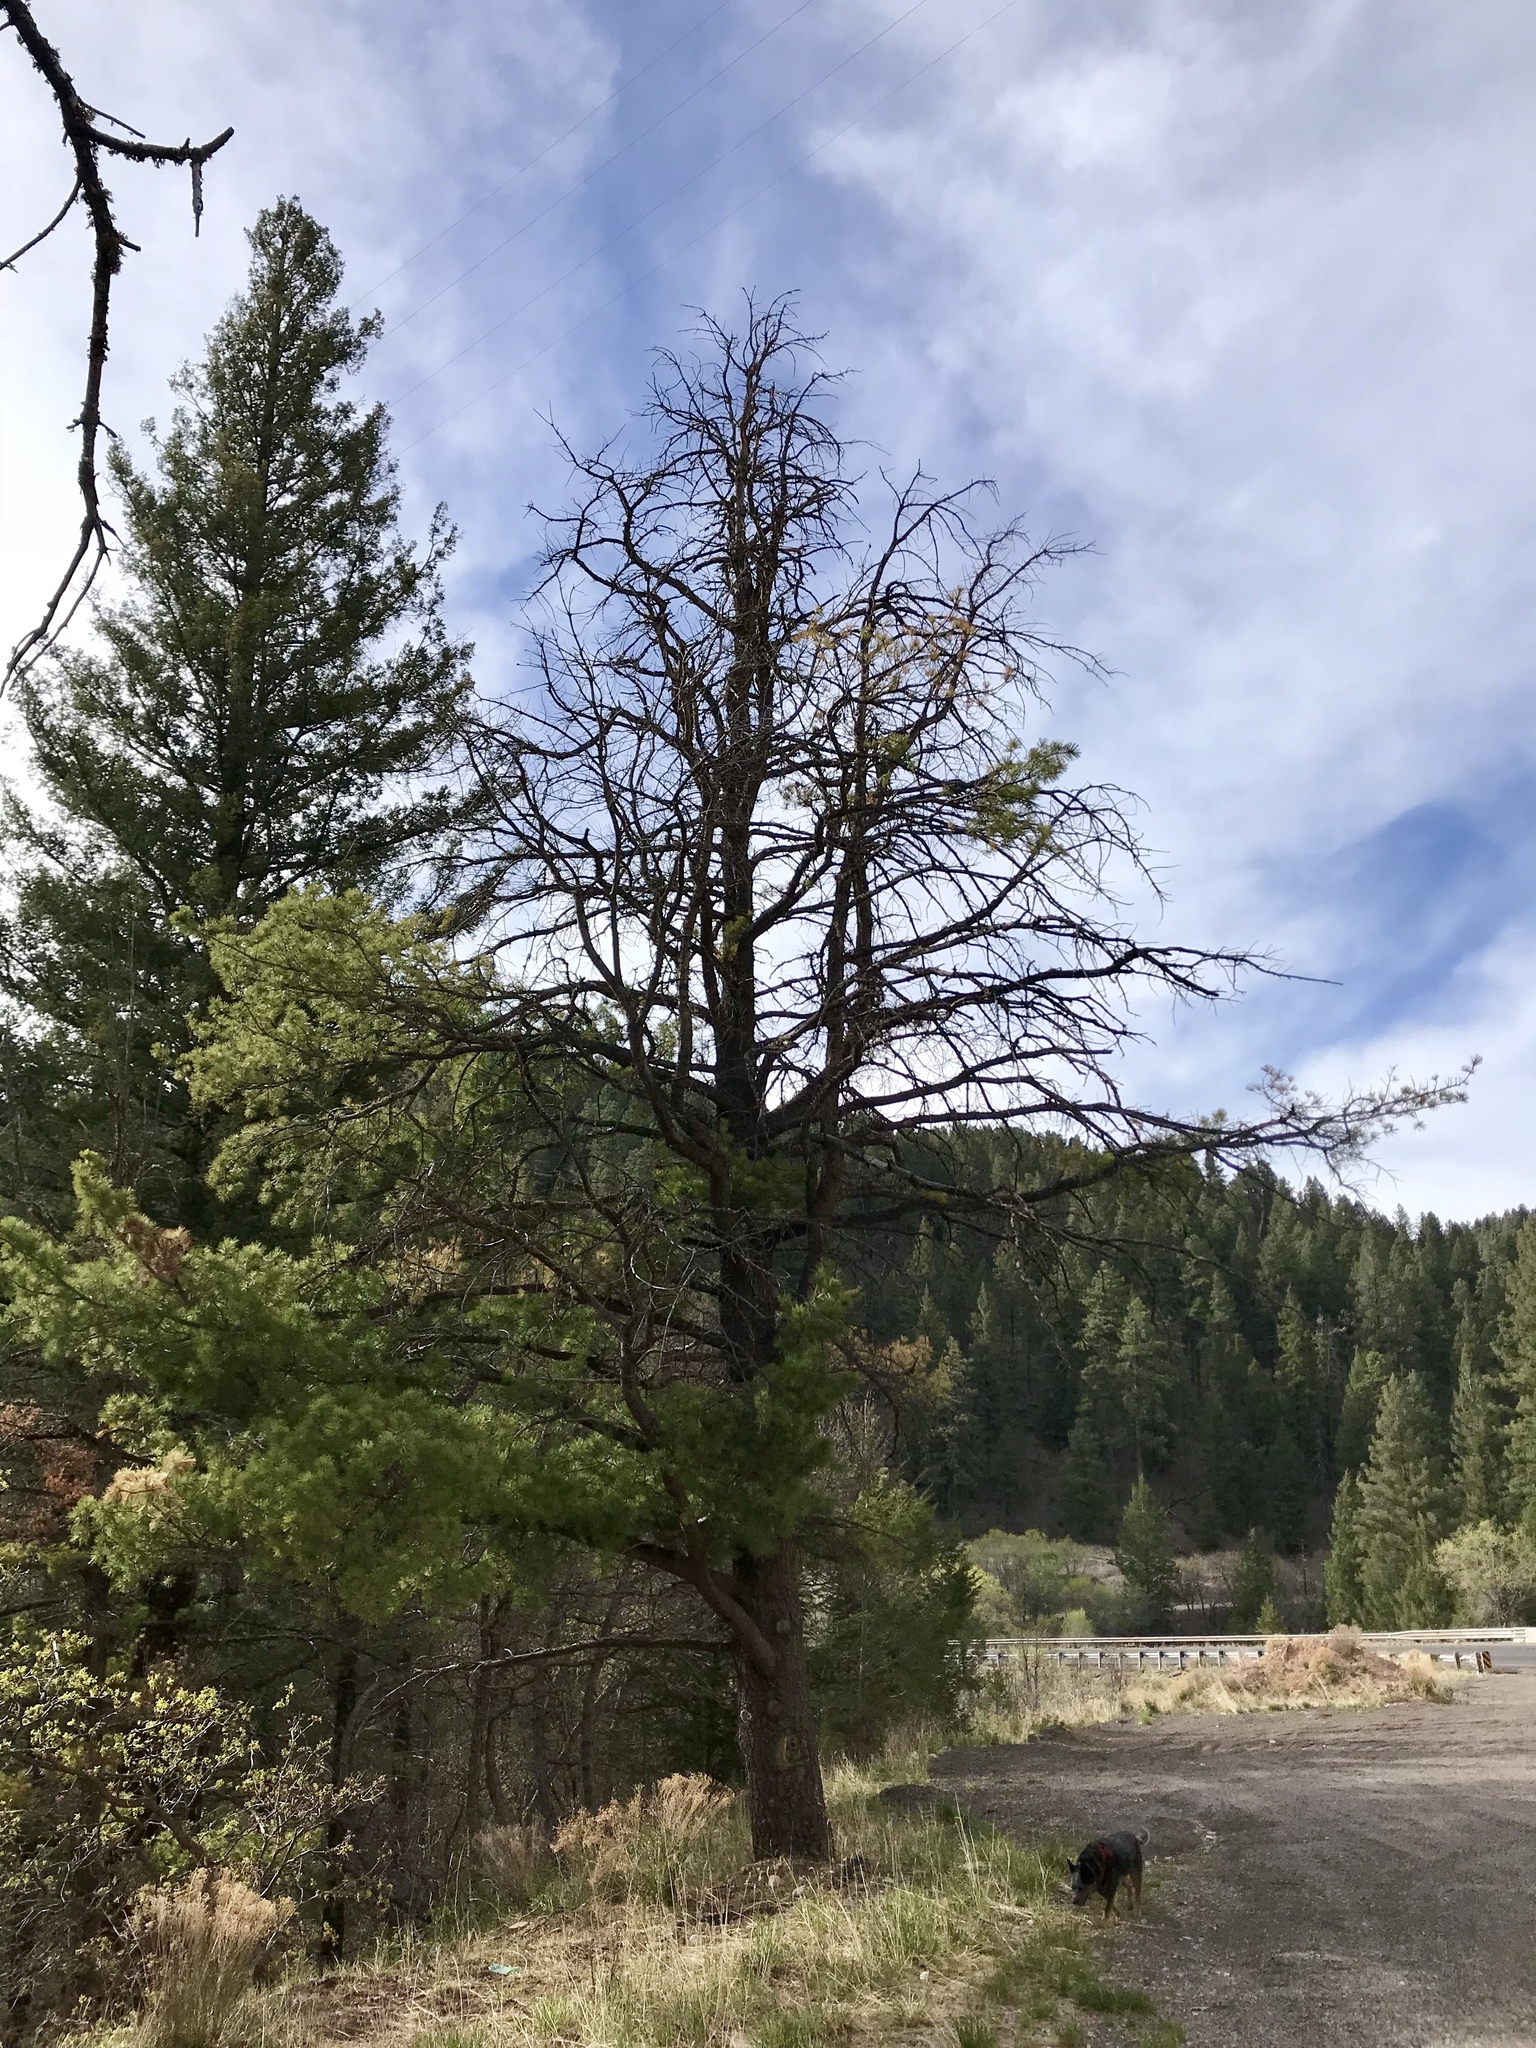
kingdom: Plantae
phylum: Tracheophyta
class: Pinopsida
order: Pinales
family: Pinaceae
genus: Pinus
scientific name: Pinus strobiformis
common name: Southwestern white pine
